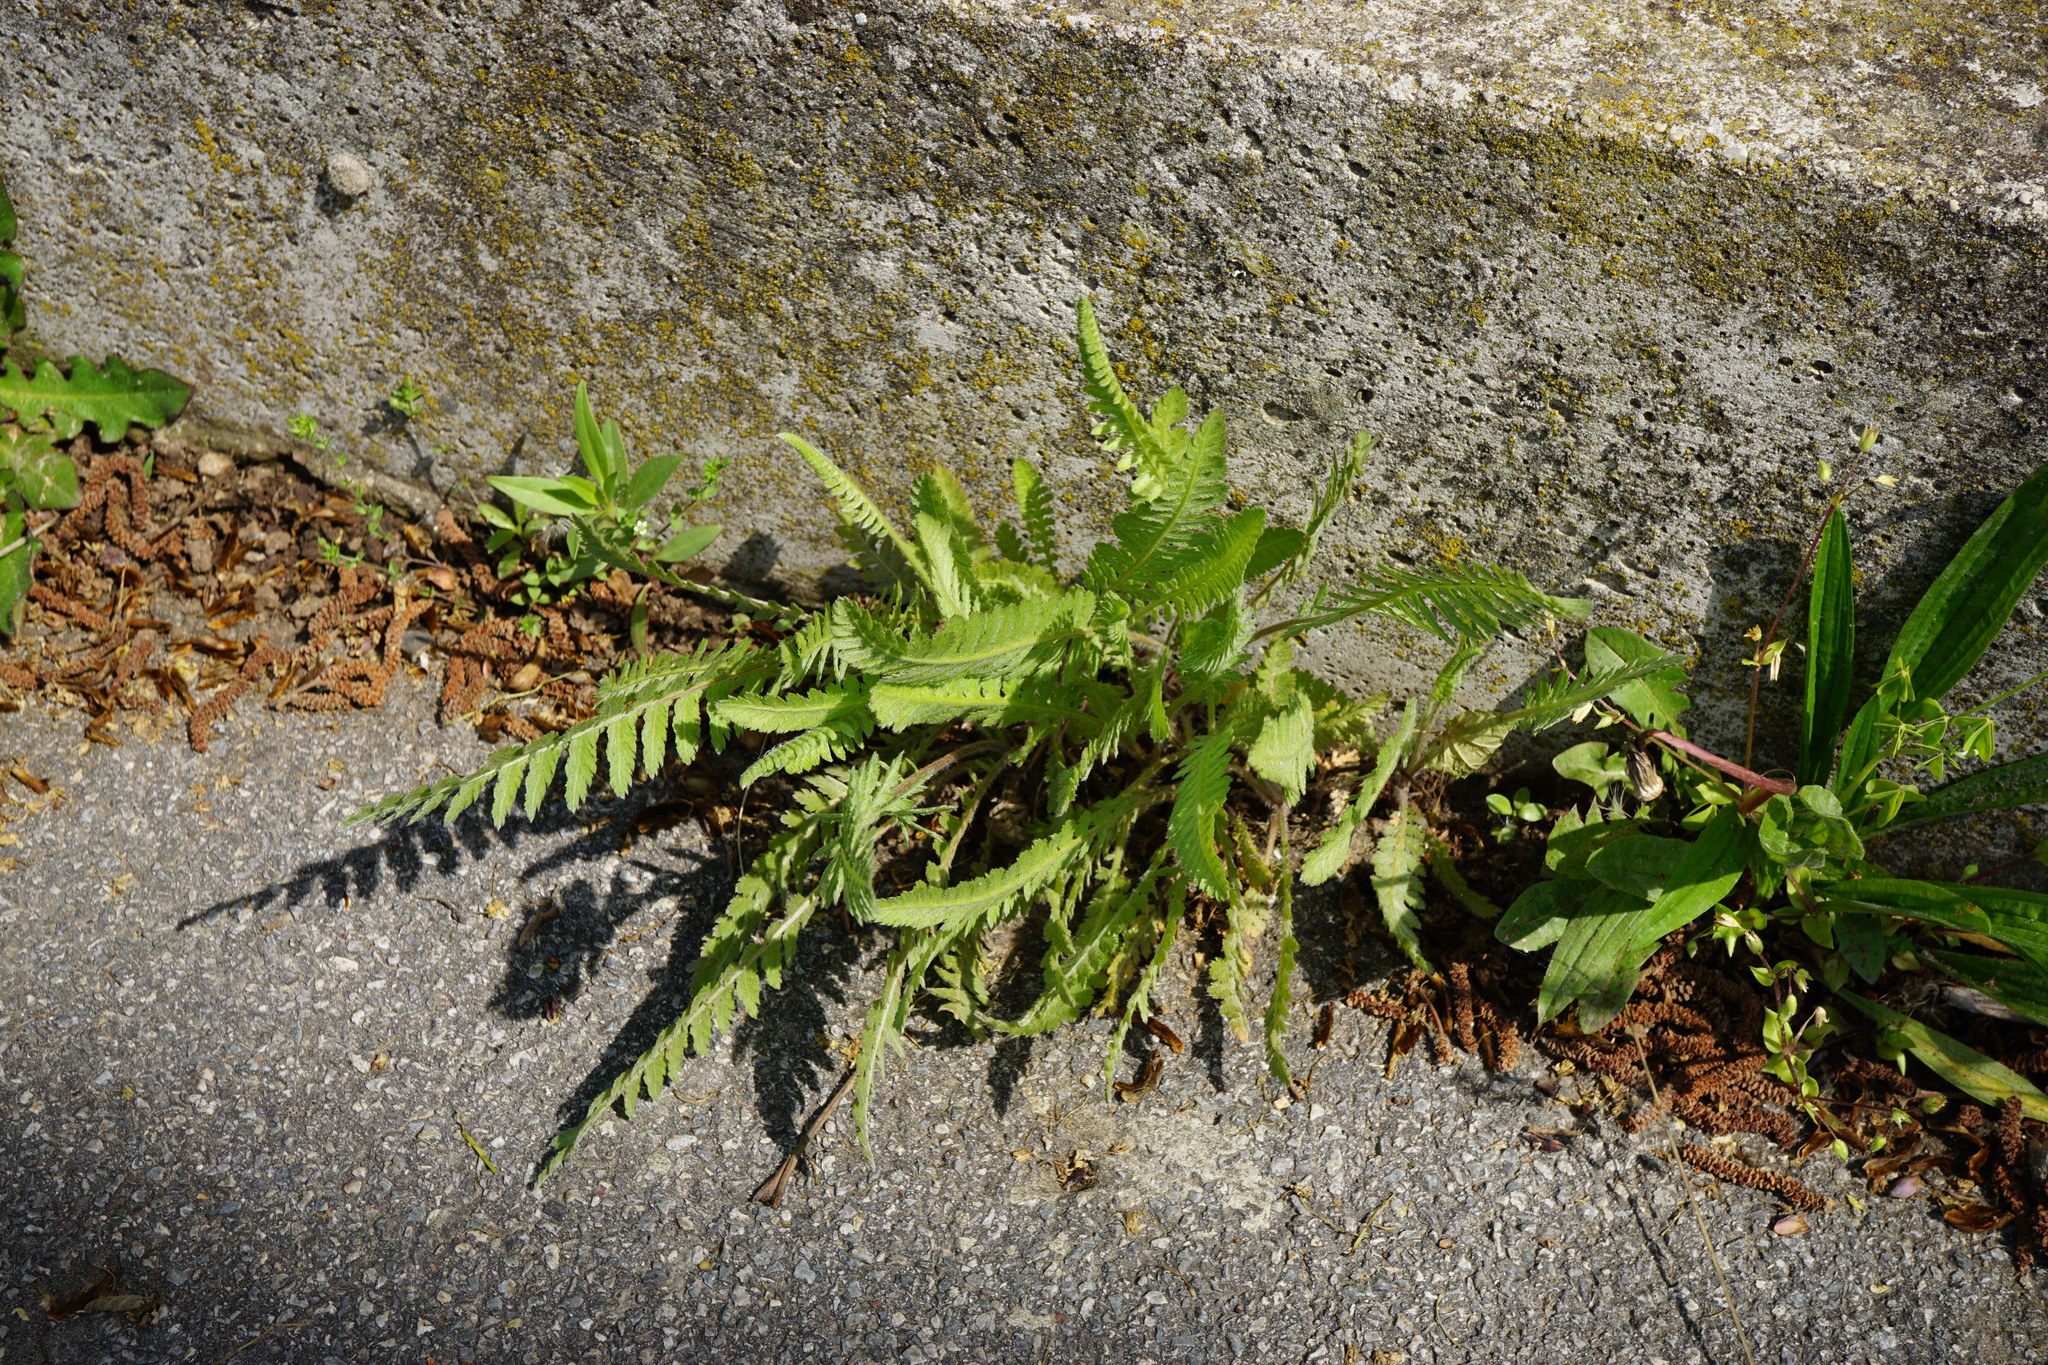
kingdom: Plantae
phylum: Tracheophyta
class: Magnoliopsida
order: Asterales
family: Asteraceae
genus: Achillea
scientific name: Achillea filipendulina
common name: Fernleaf yarrow
